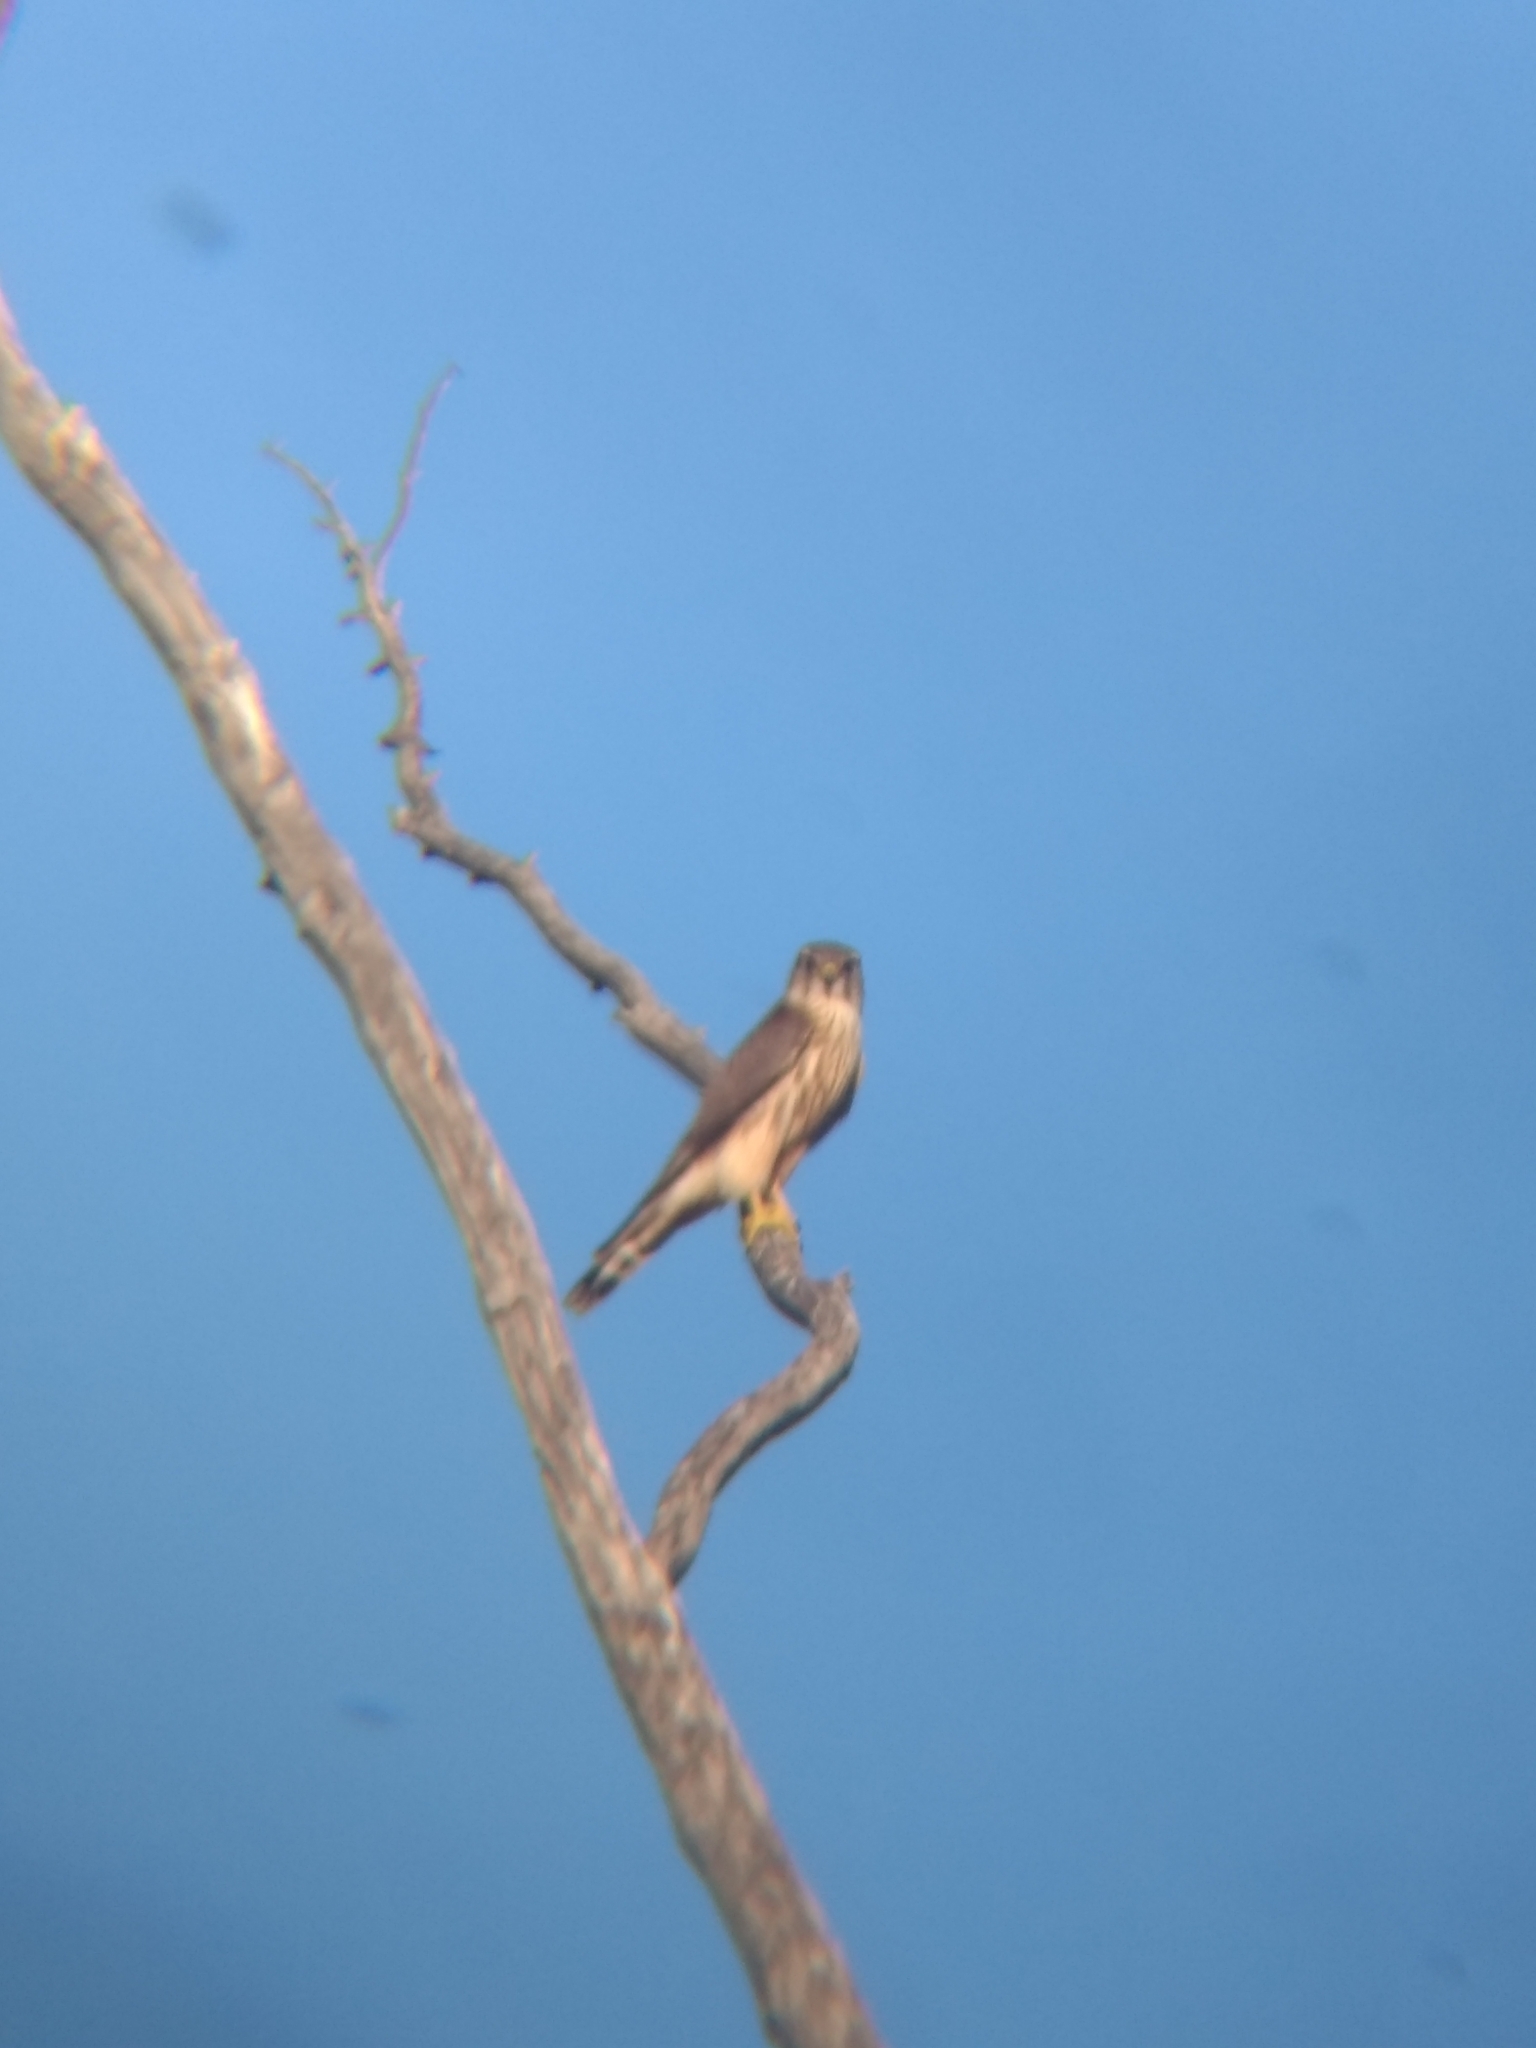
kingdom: Animalia
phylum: Chordata
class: Aves
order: Falconiformes
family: Falconidae
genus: Falco
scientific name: Falco columbarius
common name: Merlin
